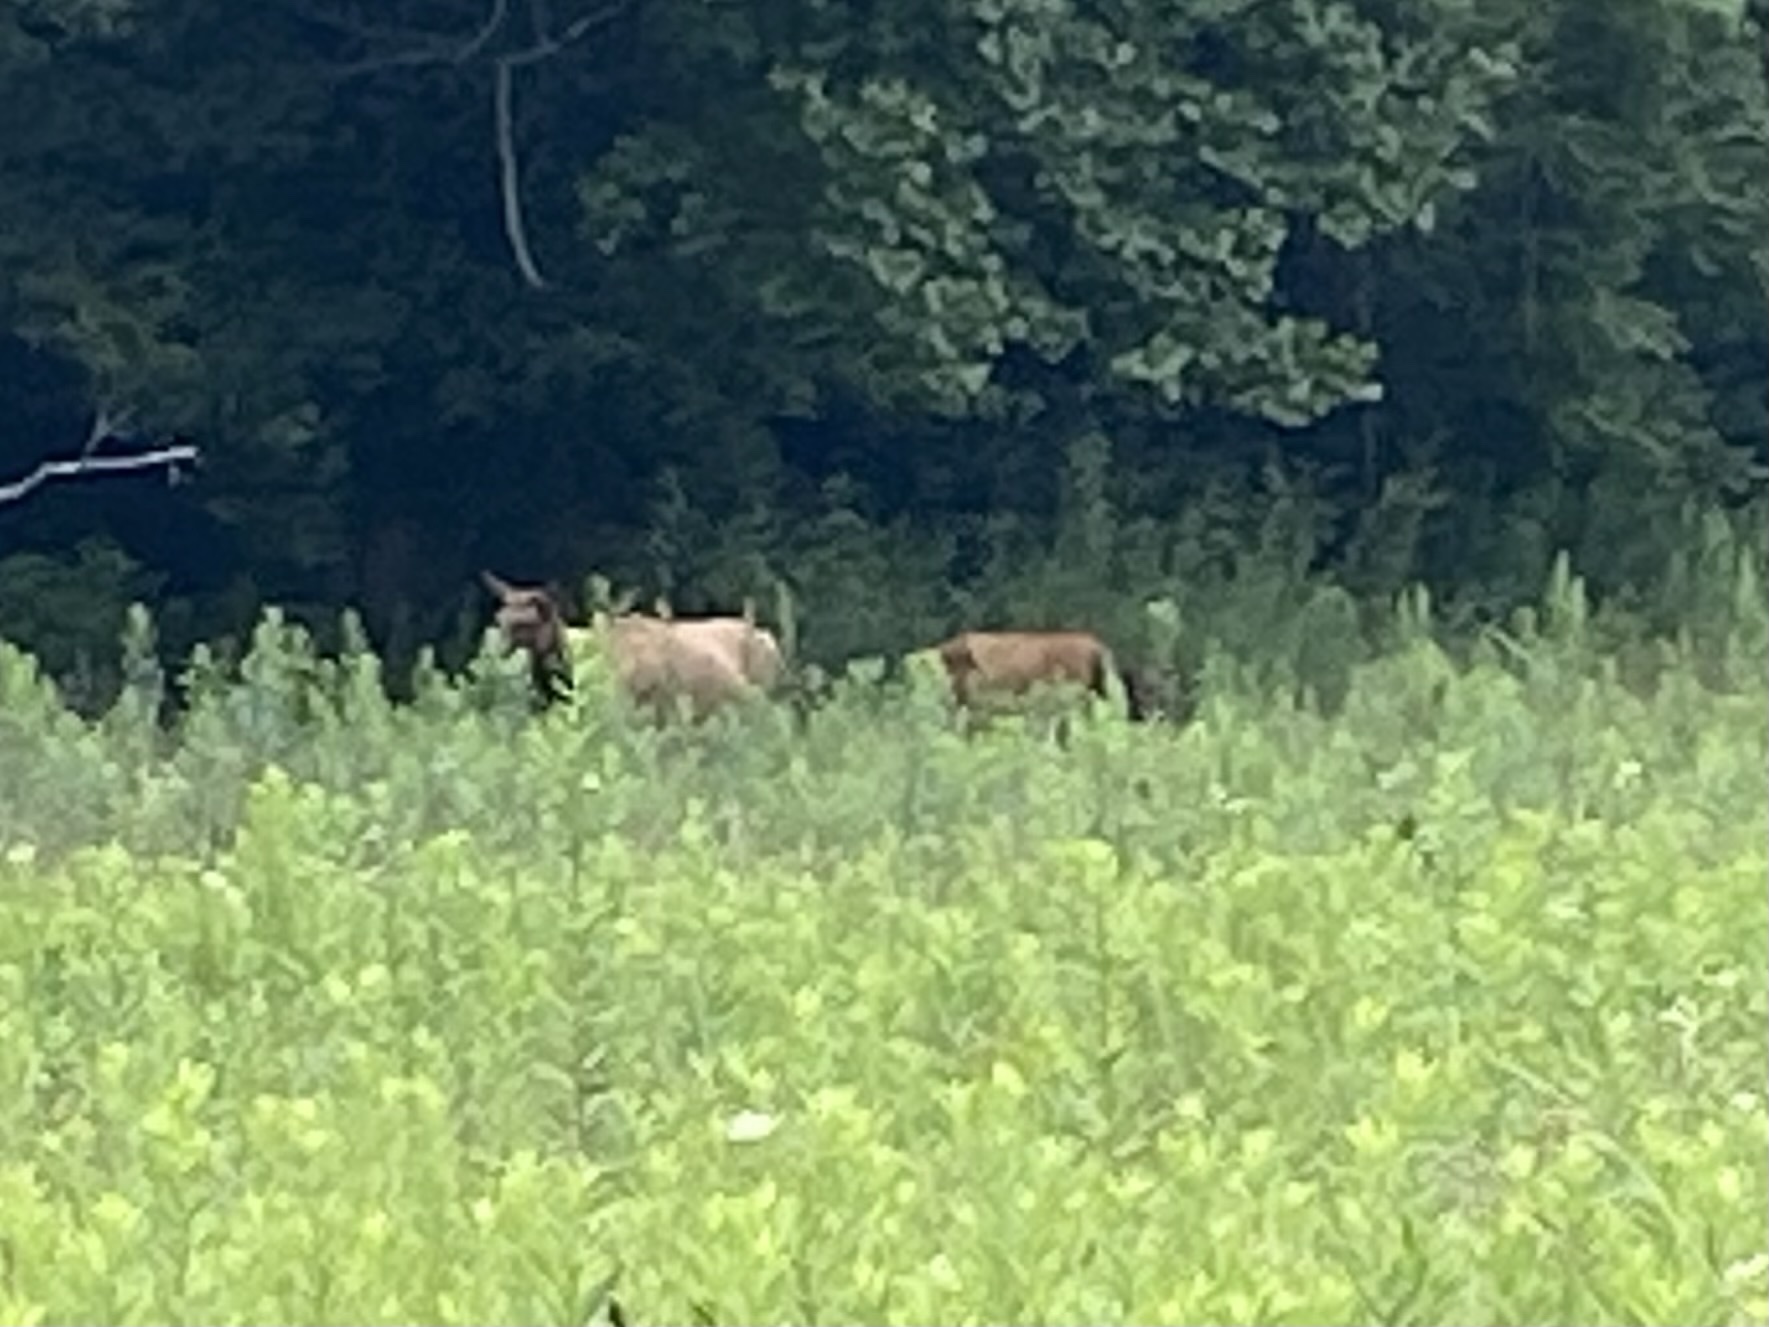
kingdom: Animalia
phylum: Chordata
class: Mammalia
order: Artiodactyla
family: Cervidae
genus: Cervus
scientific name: Cervus elaphus
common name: Red deer
